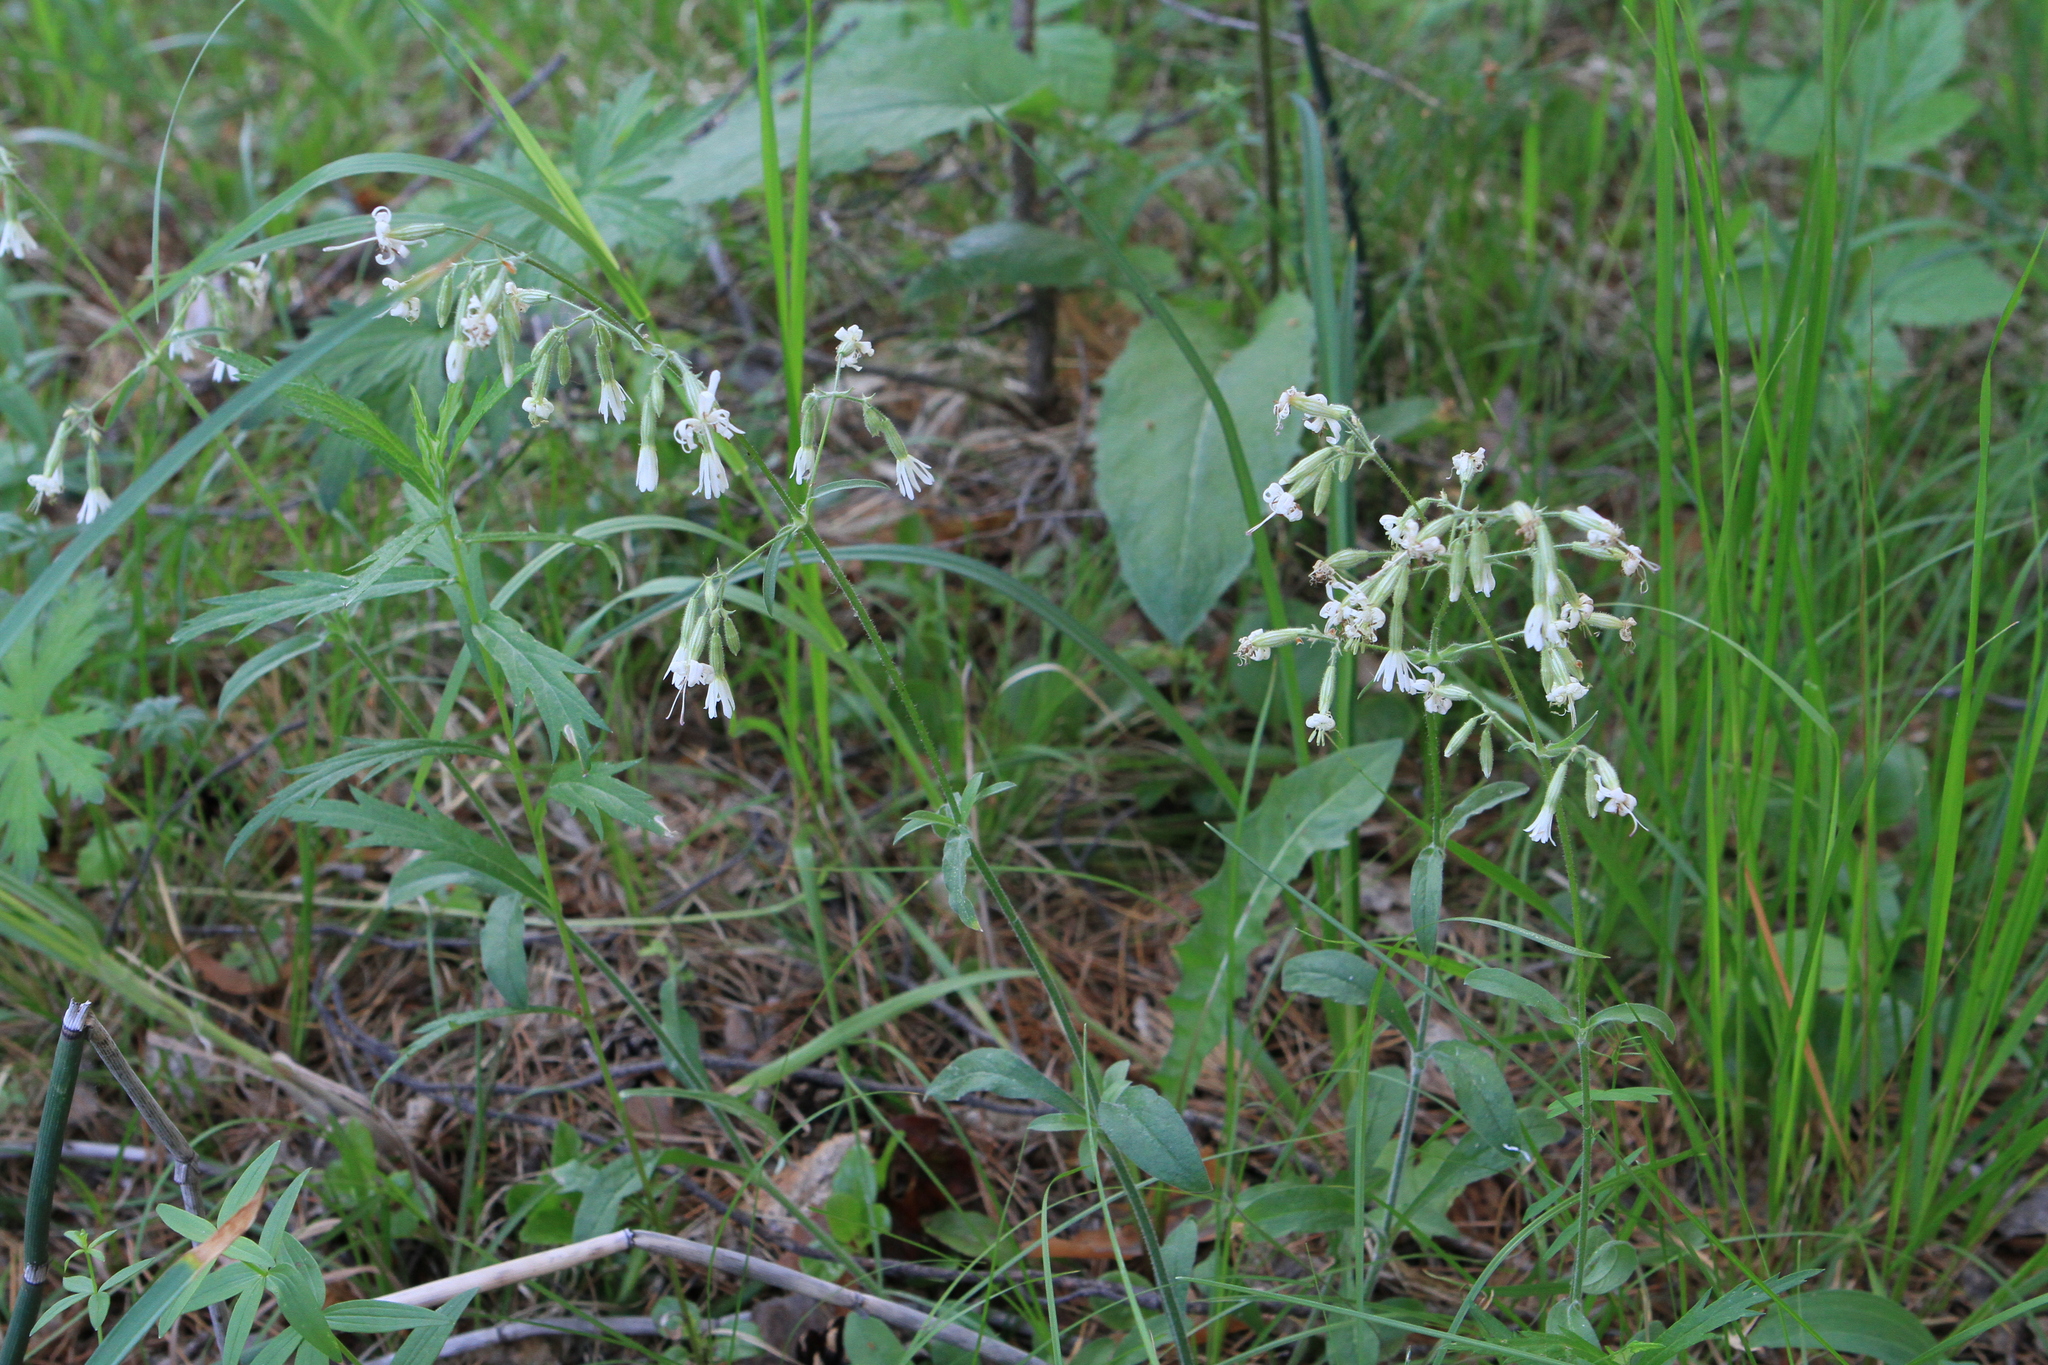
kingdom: Plantae
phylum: Tracheophyta
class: Magnoliopsida
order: Caryophyllales
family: Caryophyllaceae
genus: Silene
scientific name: Silene nutans
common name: Nottingham catchfly
